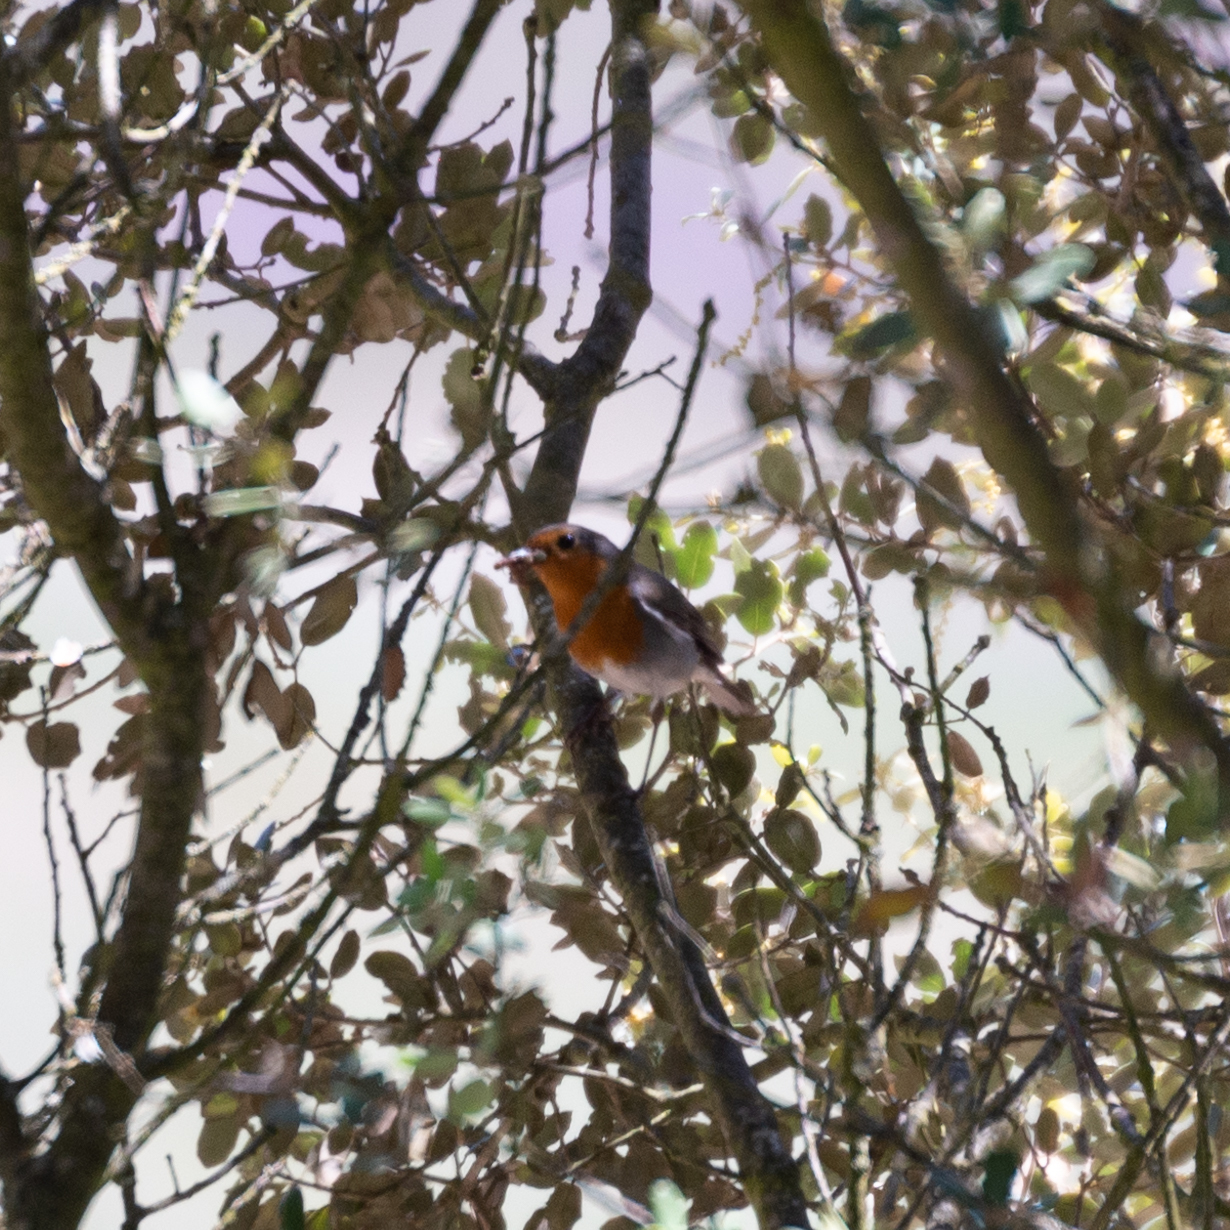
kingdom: Animalia
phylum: Chordata
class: Aves
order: Passeriformes
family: Muscicapidae
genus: Erithacus
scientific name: Erithacus rubecula
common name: European robin
